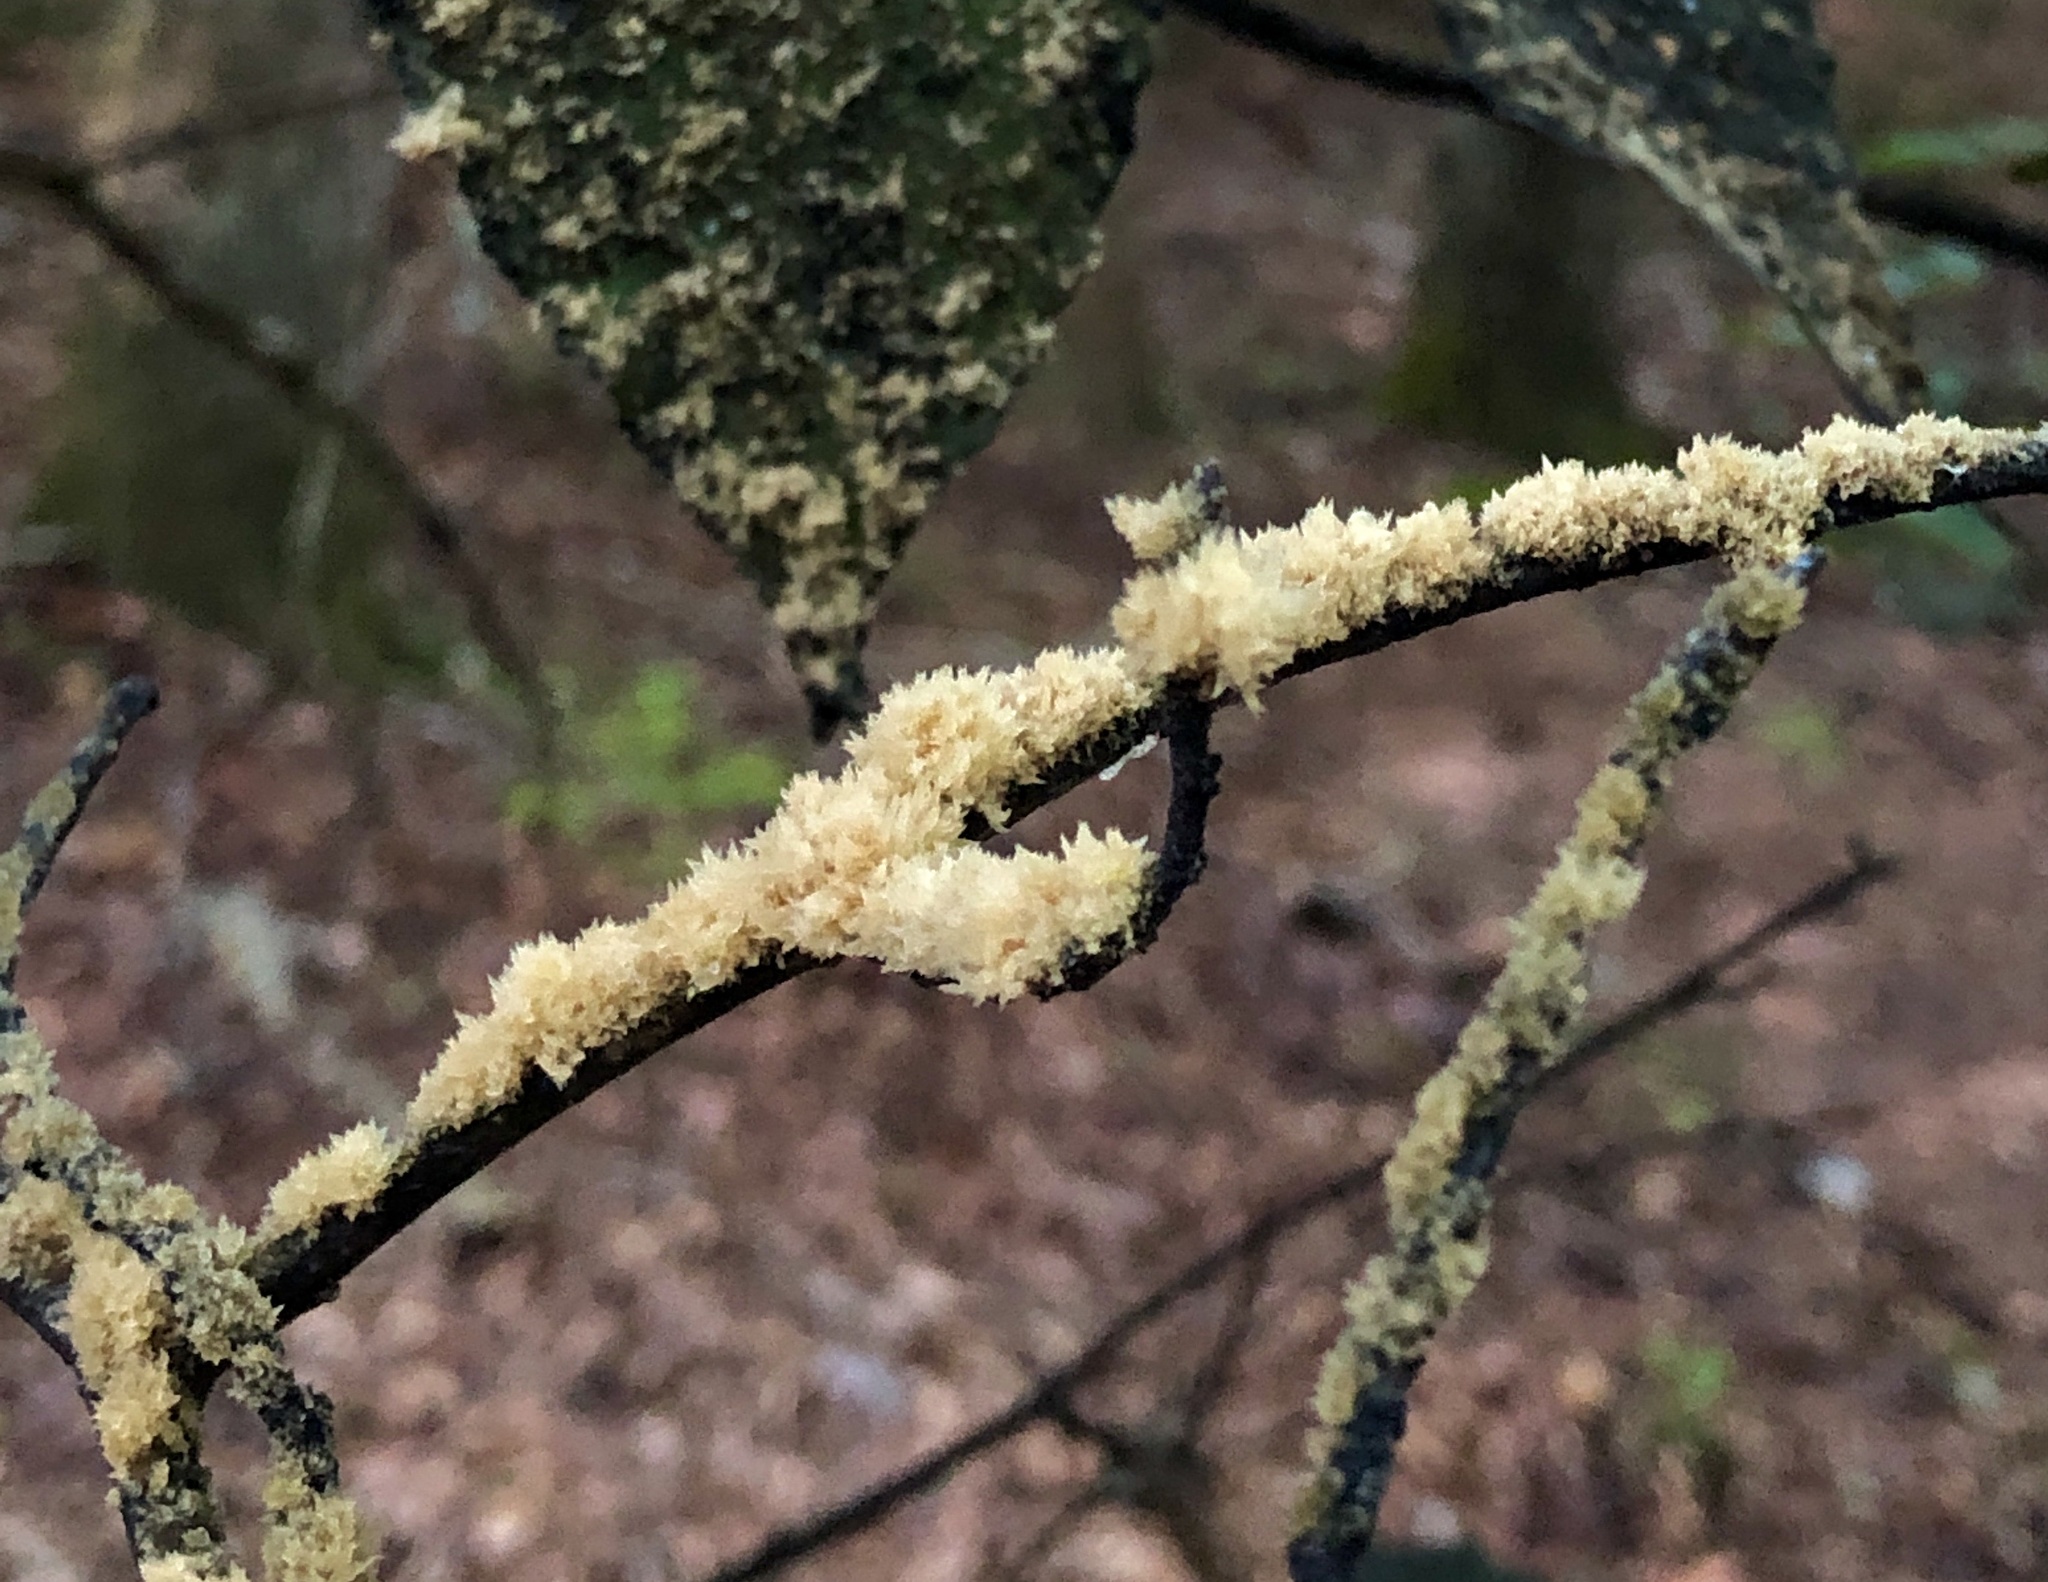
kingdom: Fungi
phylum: Ascomycota
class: Dothideomycetes
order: Capnodiales
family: Capnodiaceae
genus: Scorias
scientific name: Scorias spongiosa
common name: Black sooty mold
